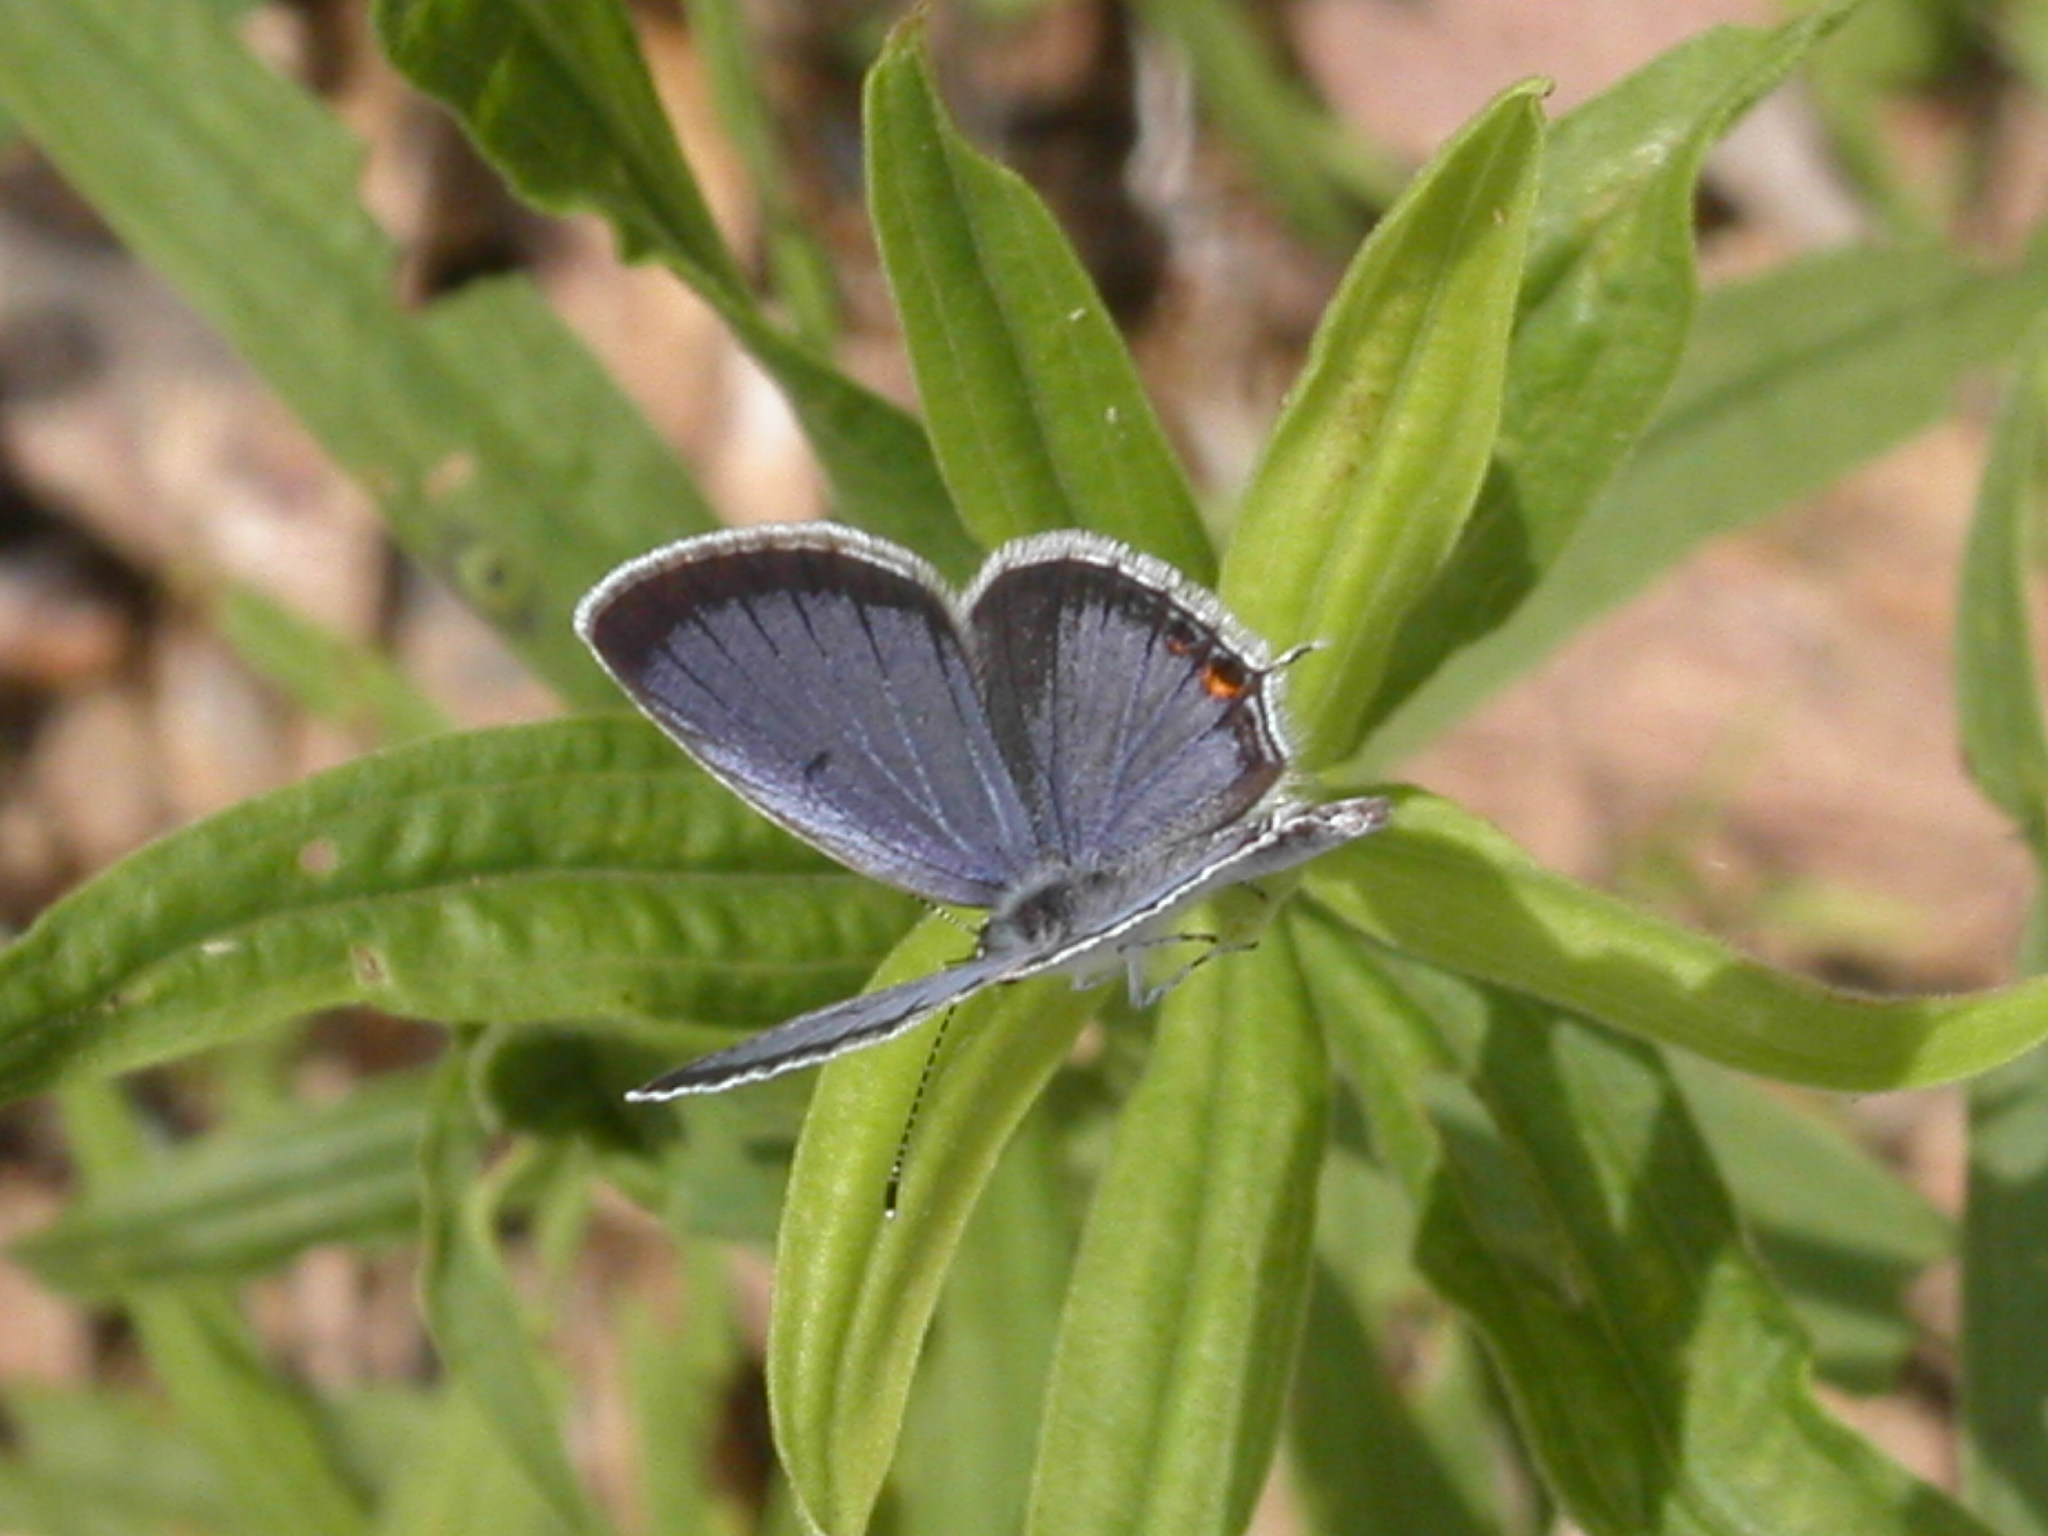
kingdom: Animalia
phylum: Arthropoda
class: Insecta
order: Lepidoptera
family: Lycaenidae
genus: Elkalyce
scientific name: Elkalyce comyntas
